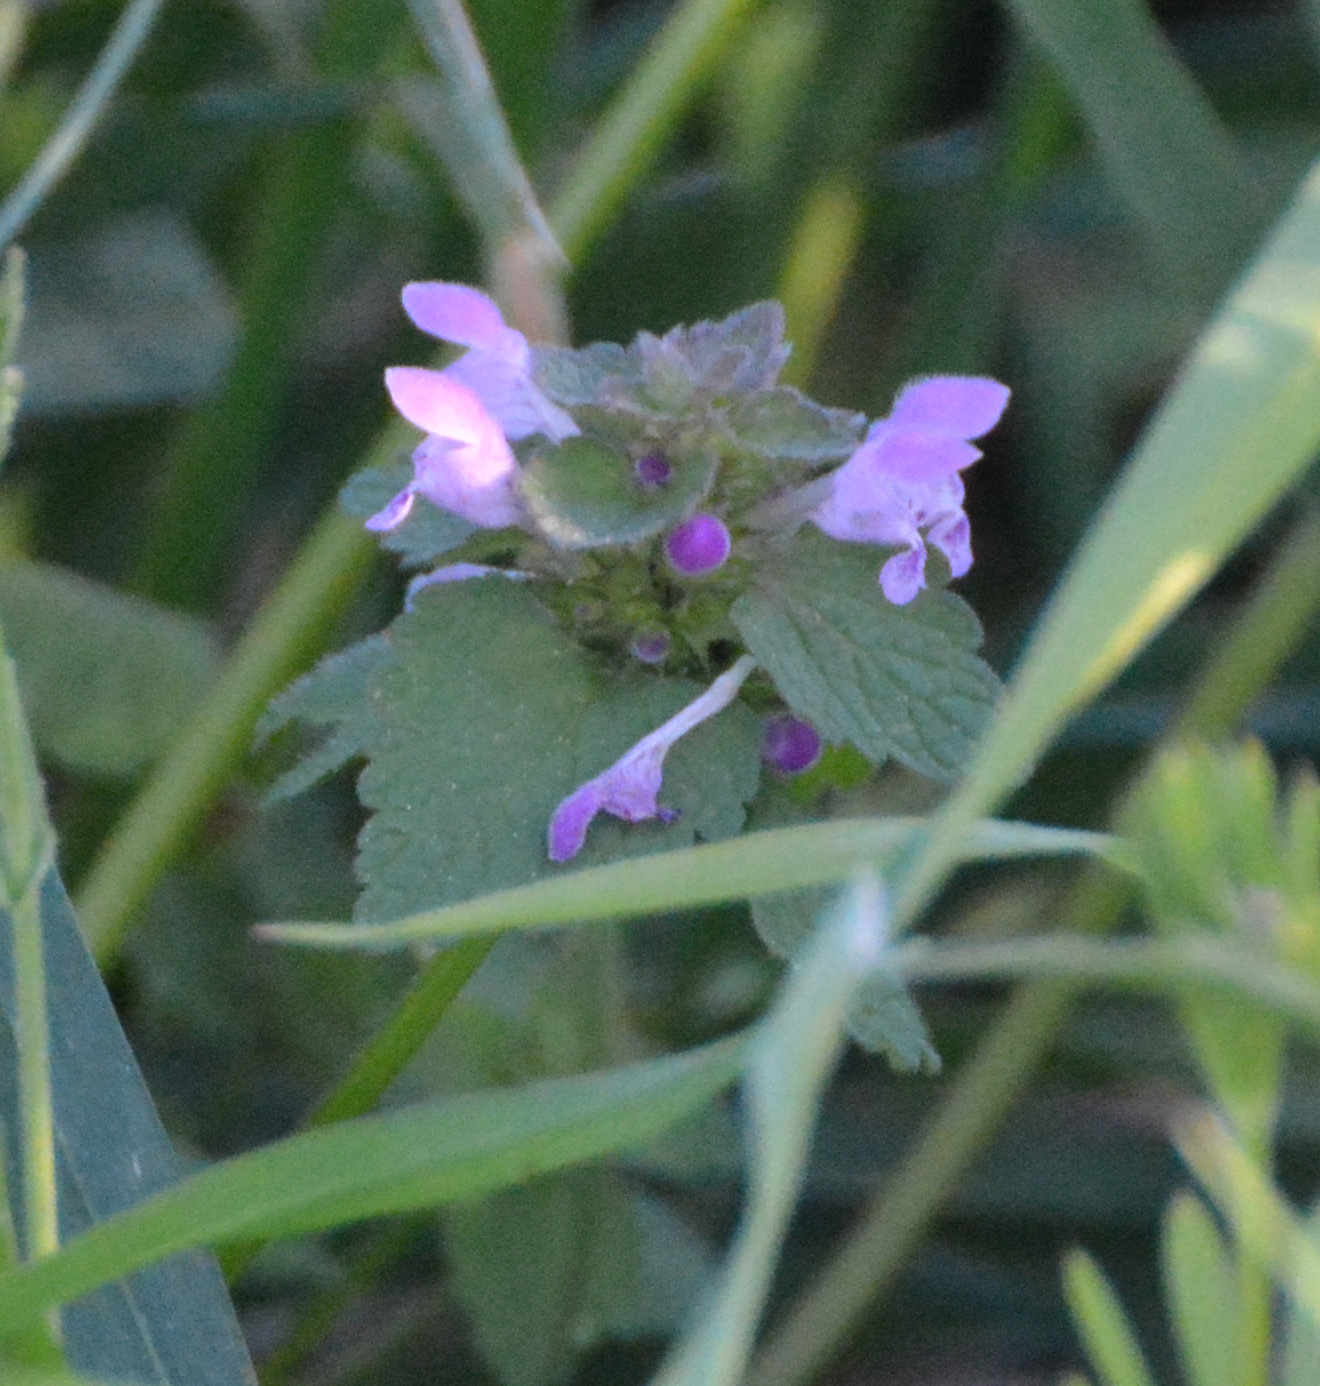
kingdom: Plantae
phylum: Tracheophyta
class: Magnoliopsida
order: Lamiales
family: Lamiaceae
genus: Lamium
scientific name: Lamium purpureum
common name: Red dead-nettle
